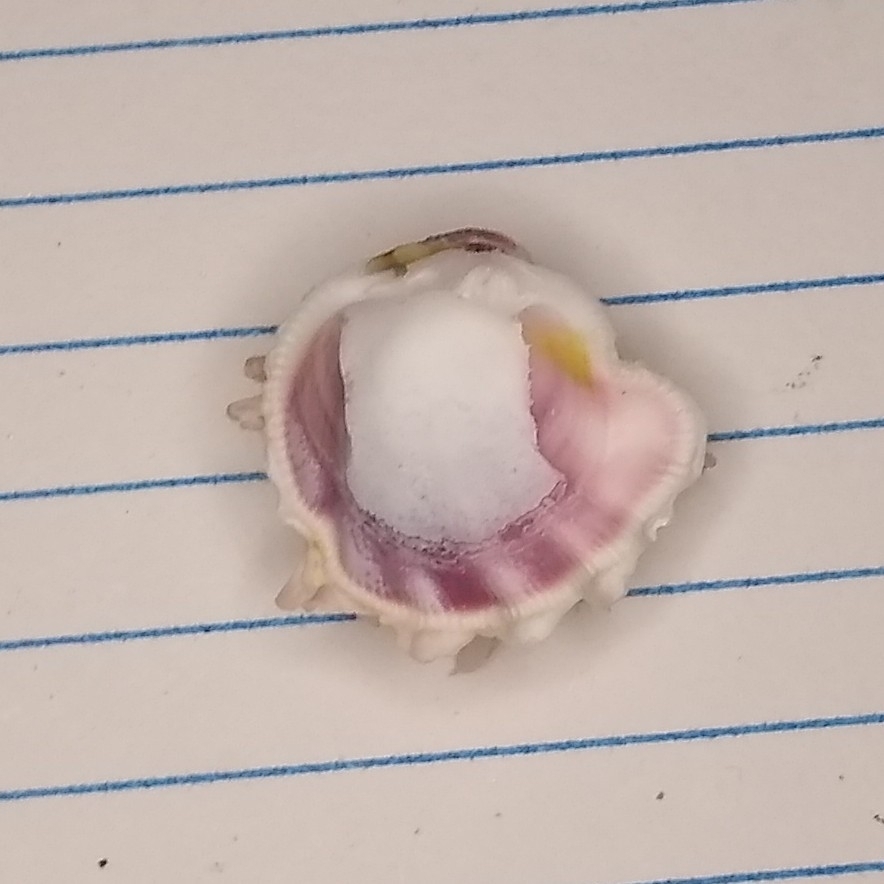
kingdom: Animalia
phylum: Mollusca
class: Bivalvia
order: Venerida
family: Chamidae
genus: Arcinella
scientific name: Arcinella cornuta
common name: Florida spiny jewel box
